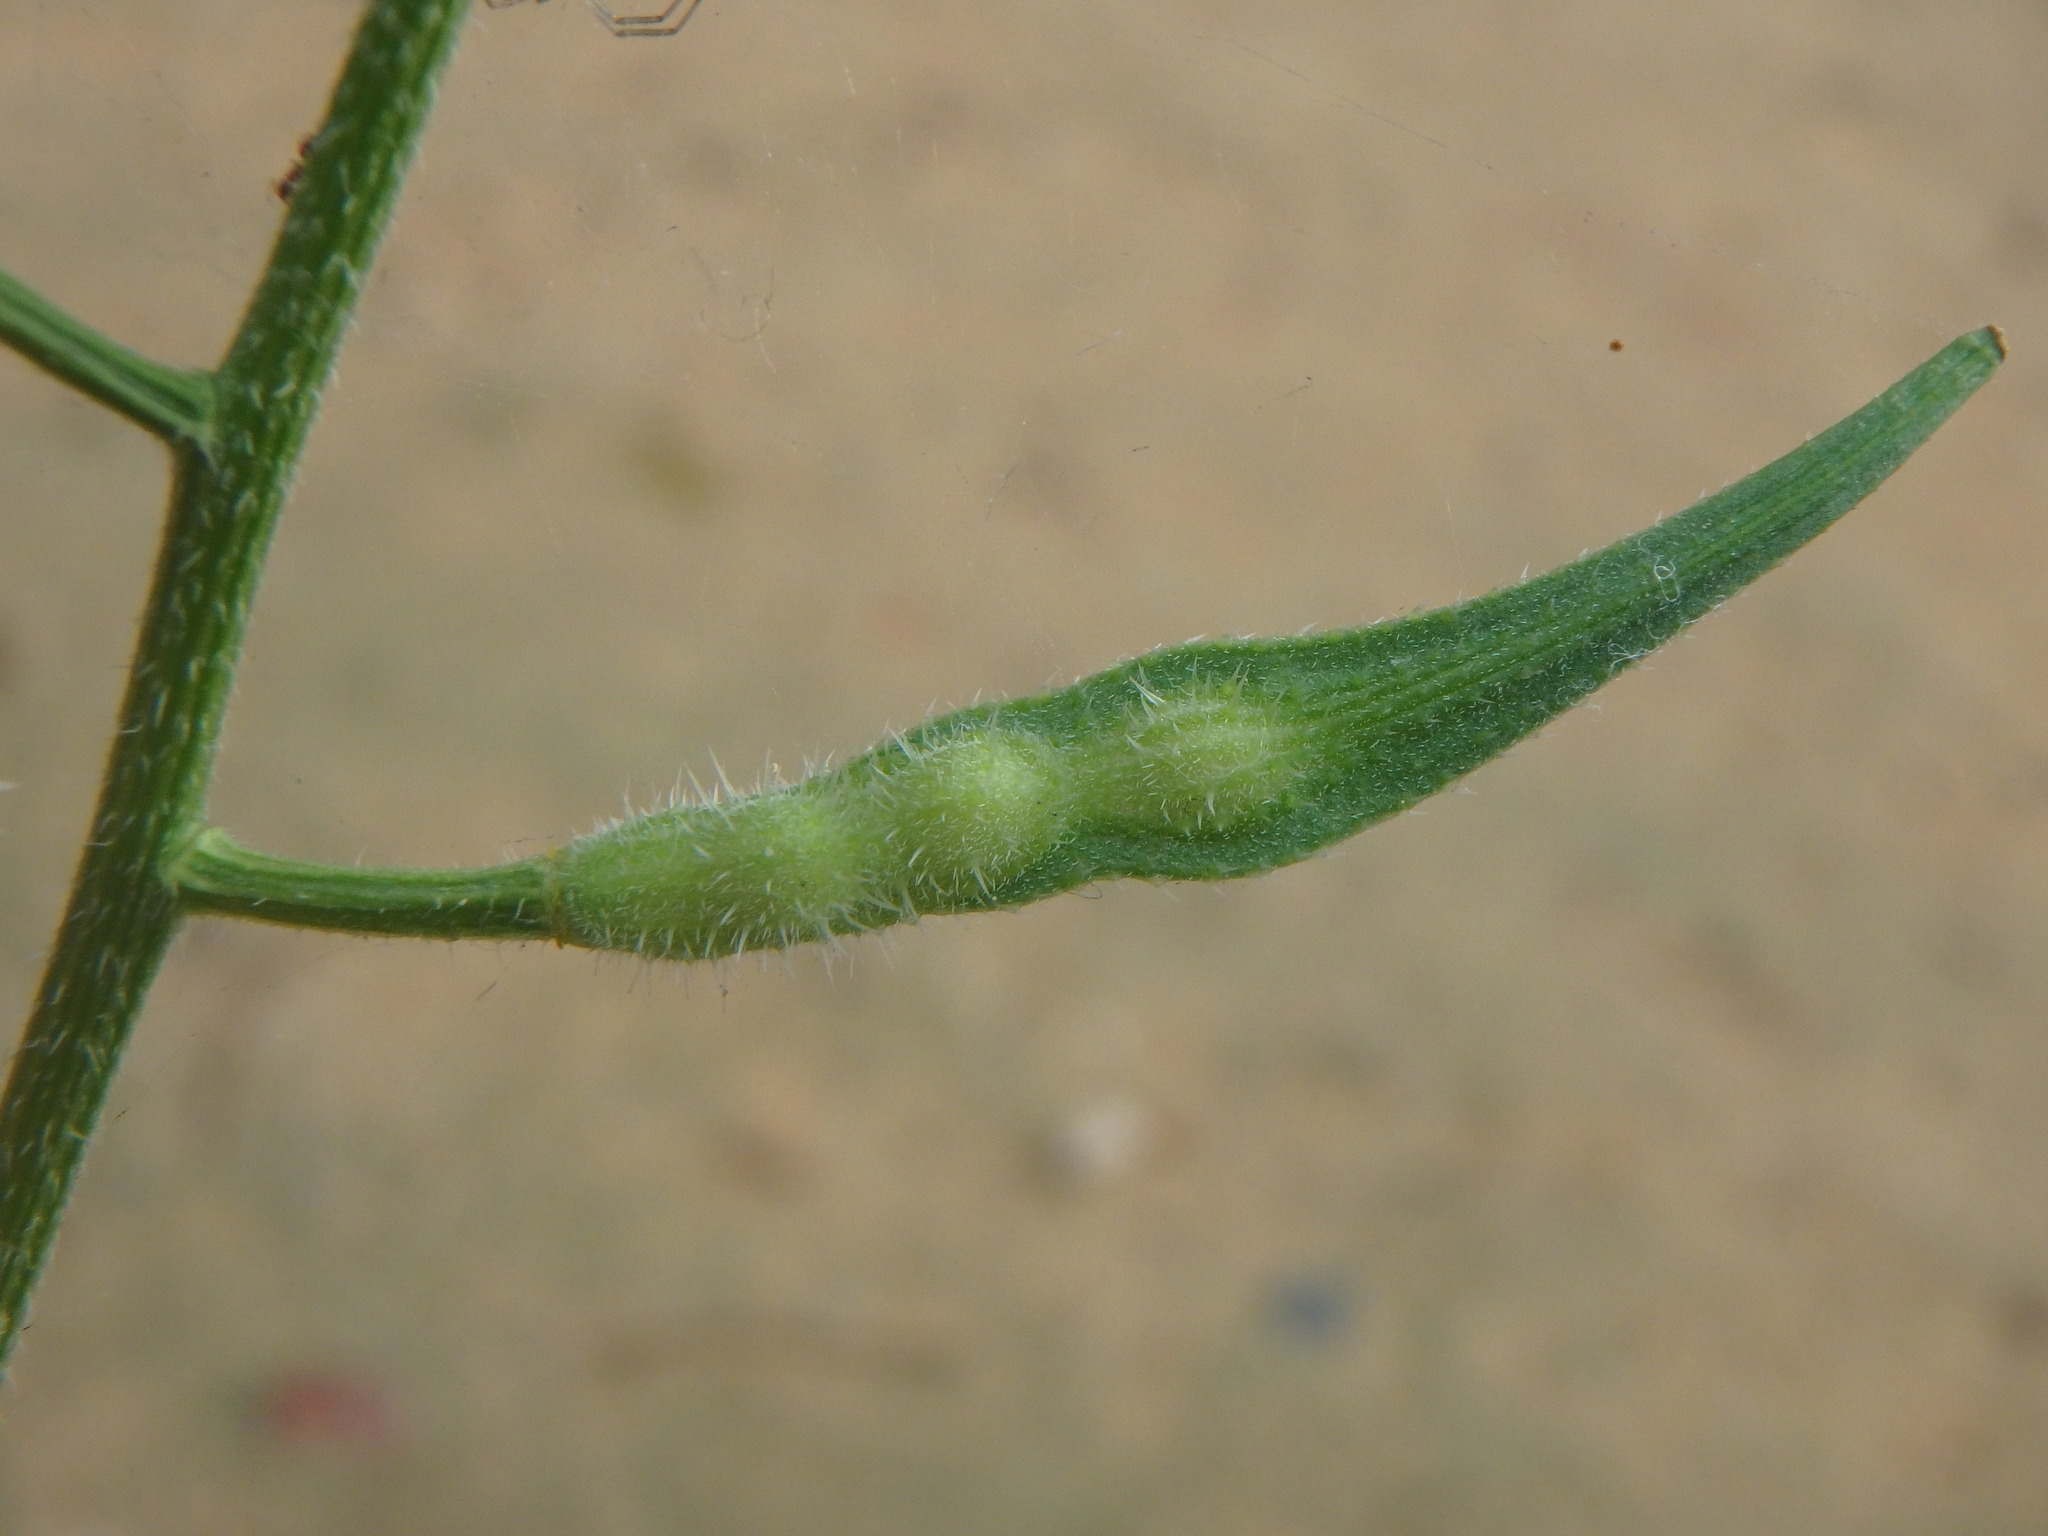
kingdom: Plantae
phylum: Tracheophyta
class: Magnoliopsida
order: Brassicales
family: Brassicaceae
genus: Sinapis
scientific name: Sinapis alba
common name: White mustard
